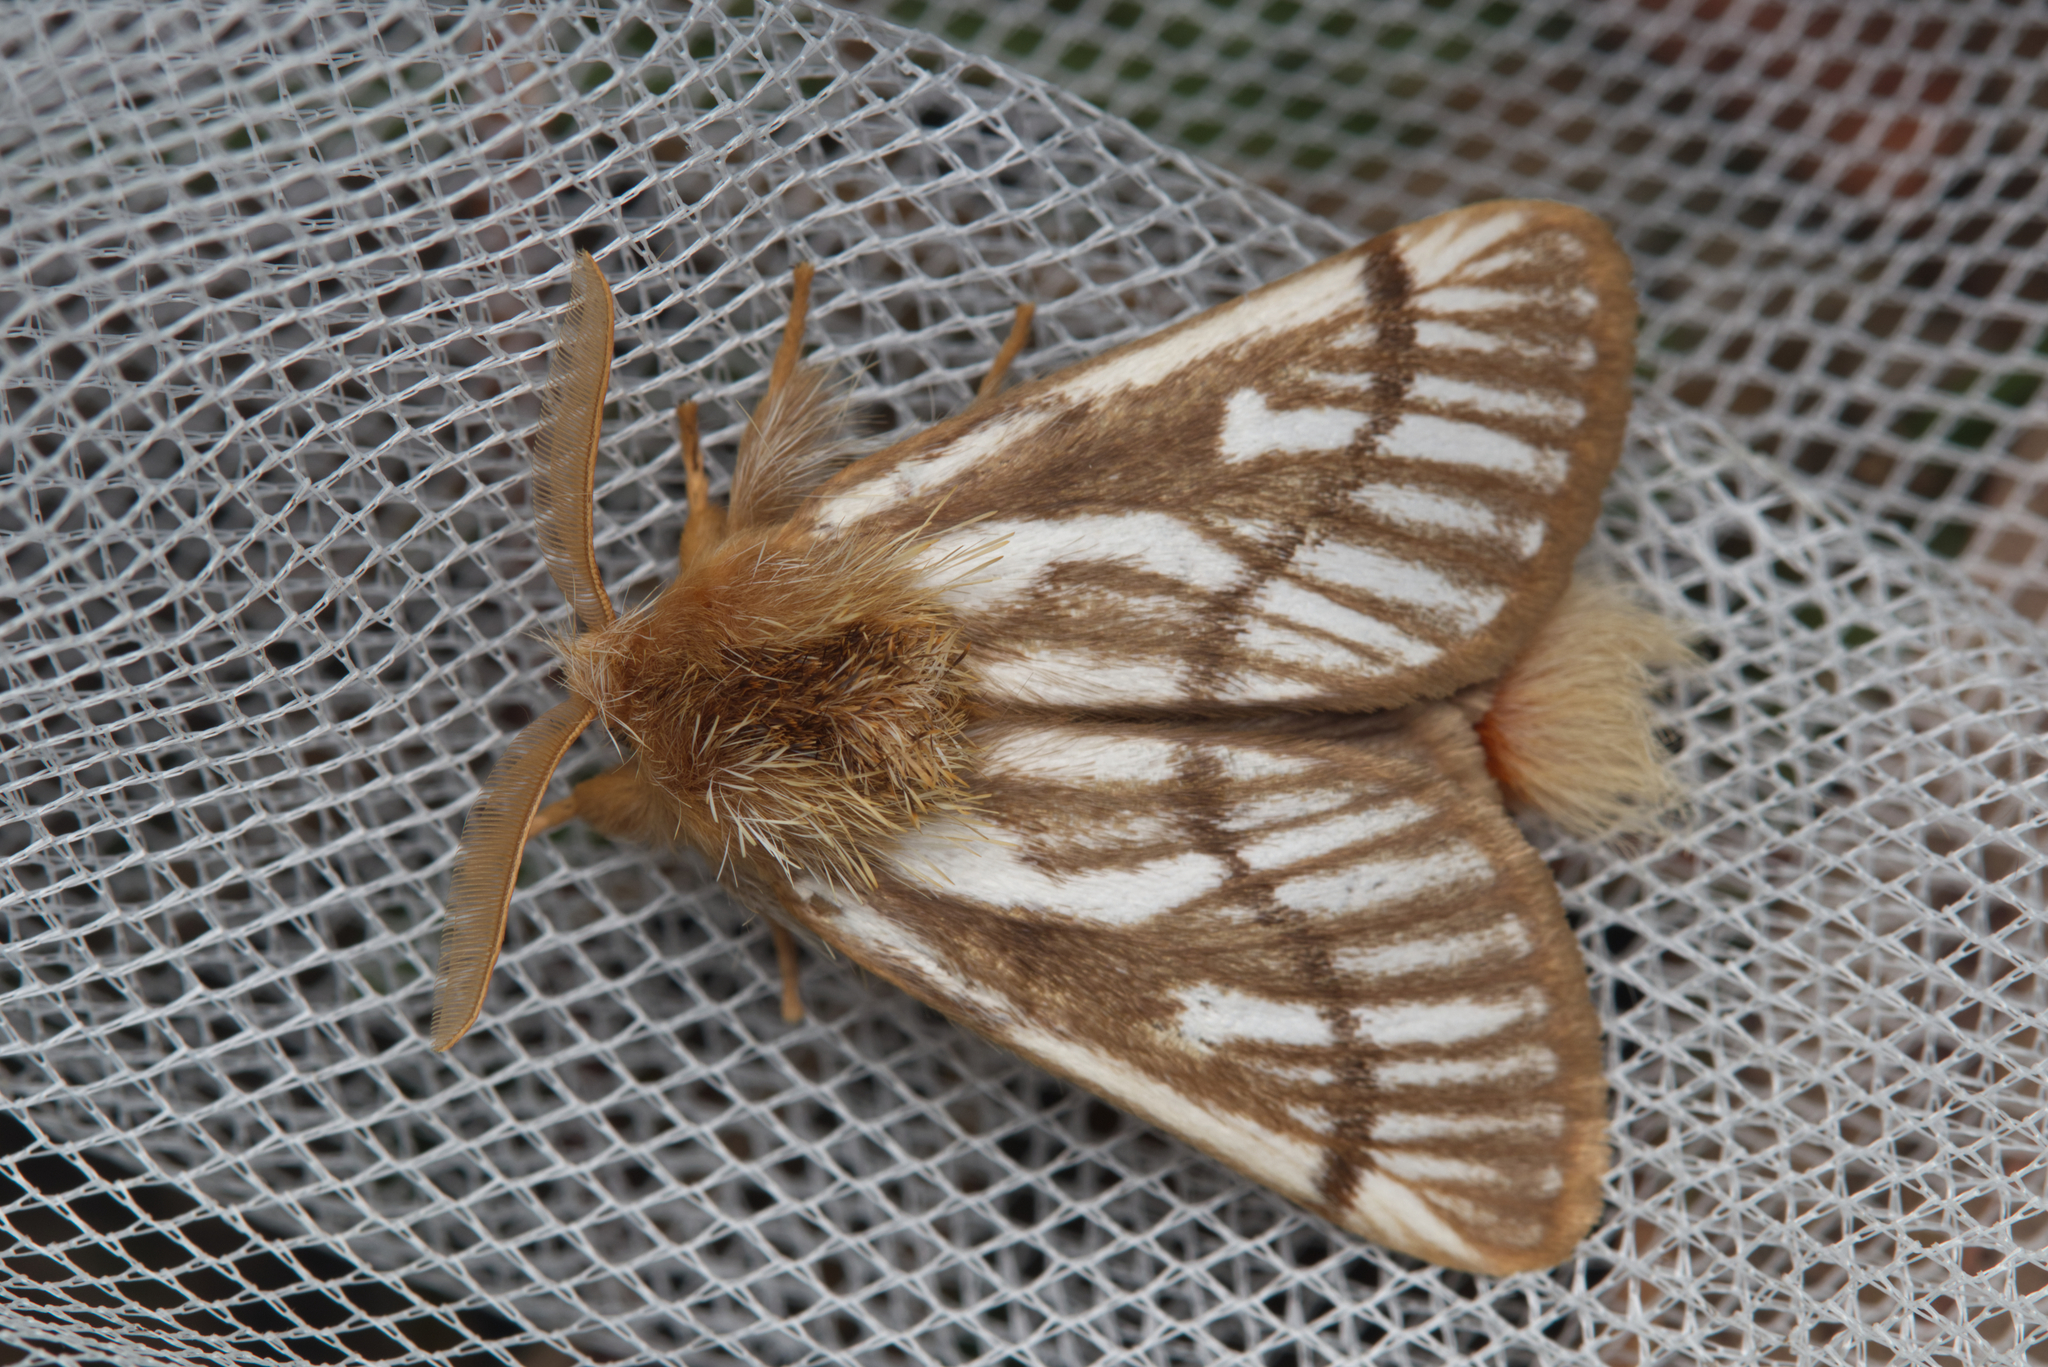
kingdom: Animalia
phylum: Arthropoda
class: Insecta
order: Lepidoptera
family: Notodontidae
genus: Ochrogaster
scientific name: Ochrogaster lunifer
